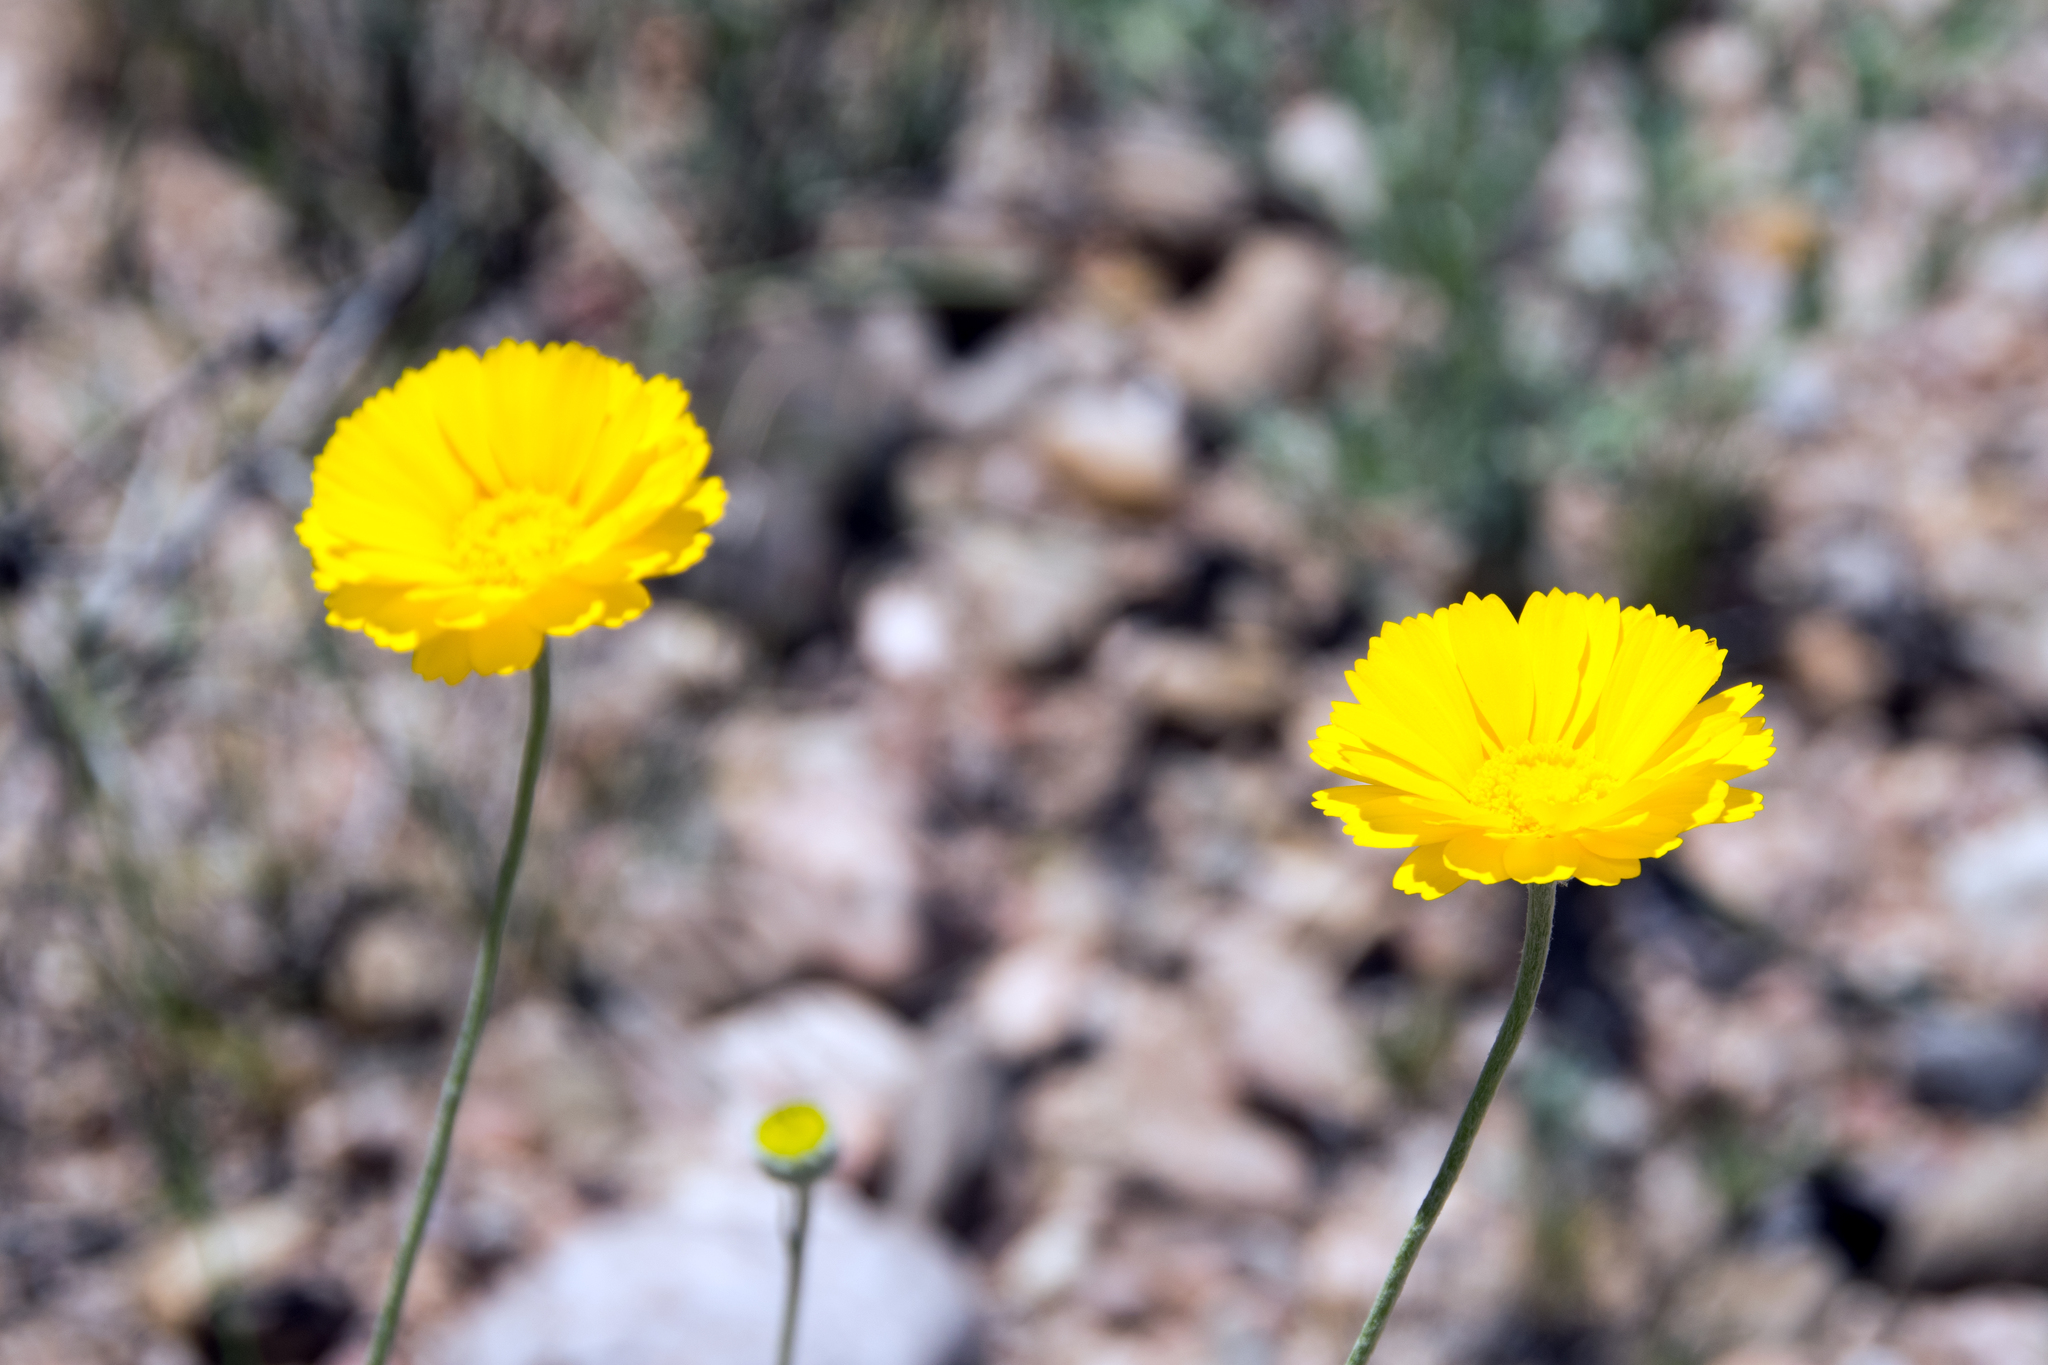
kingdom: Plantae
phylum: Tracheophyta
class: Magnoliopsida
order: Asterales
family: Asteraceae
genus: Baileya
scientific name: Baileya multiradiata
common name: Desert-marigold
